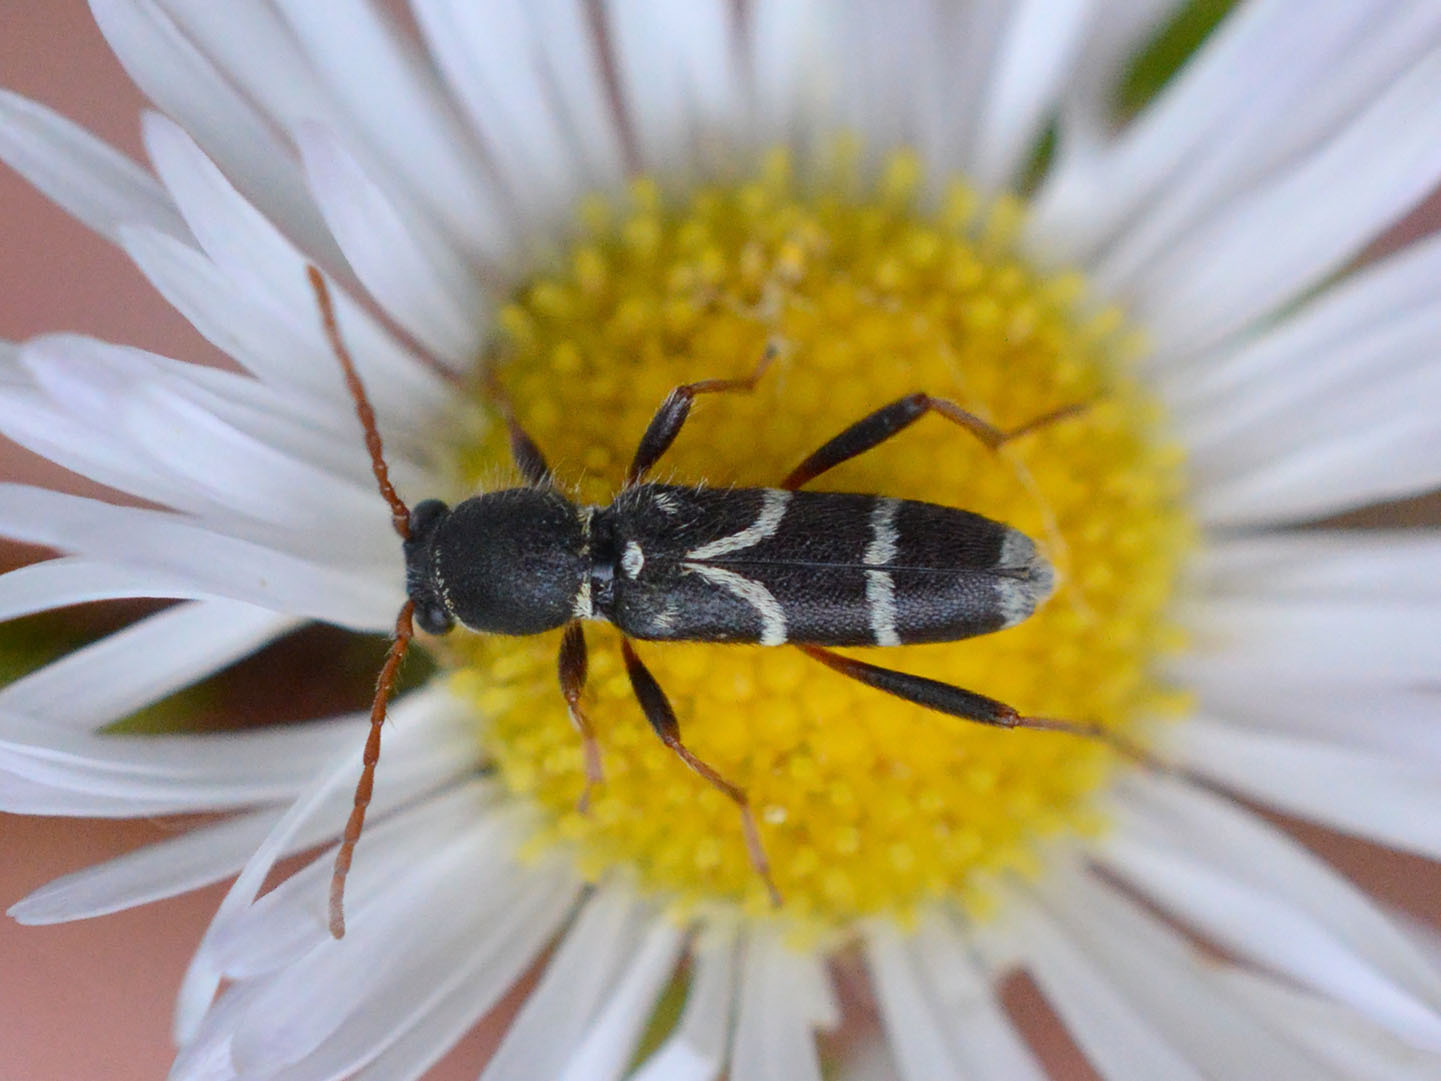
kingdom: Animalia
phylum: Arthropoda
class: Insecta
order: Coleoptera
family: Cerambycidae
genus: Clytus
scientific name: Clytus rhamni
